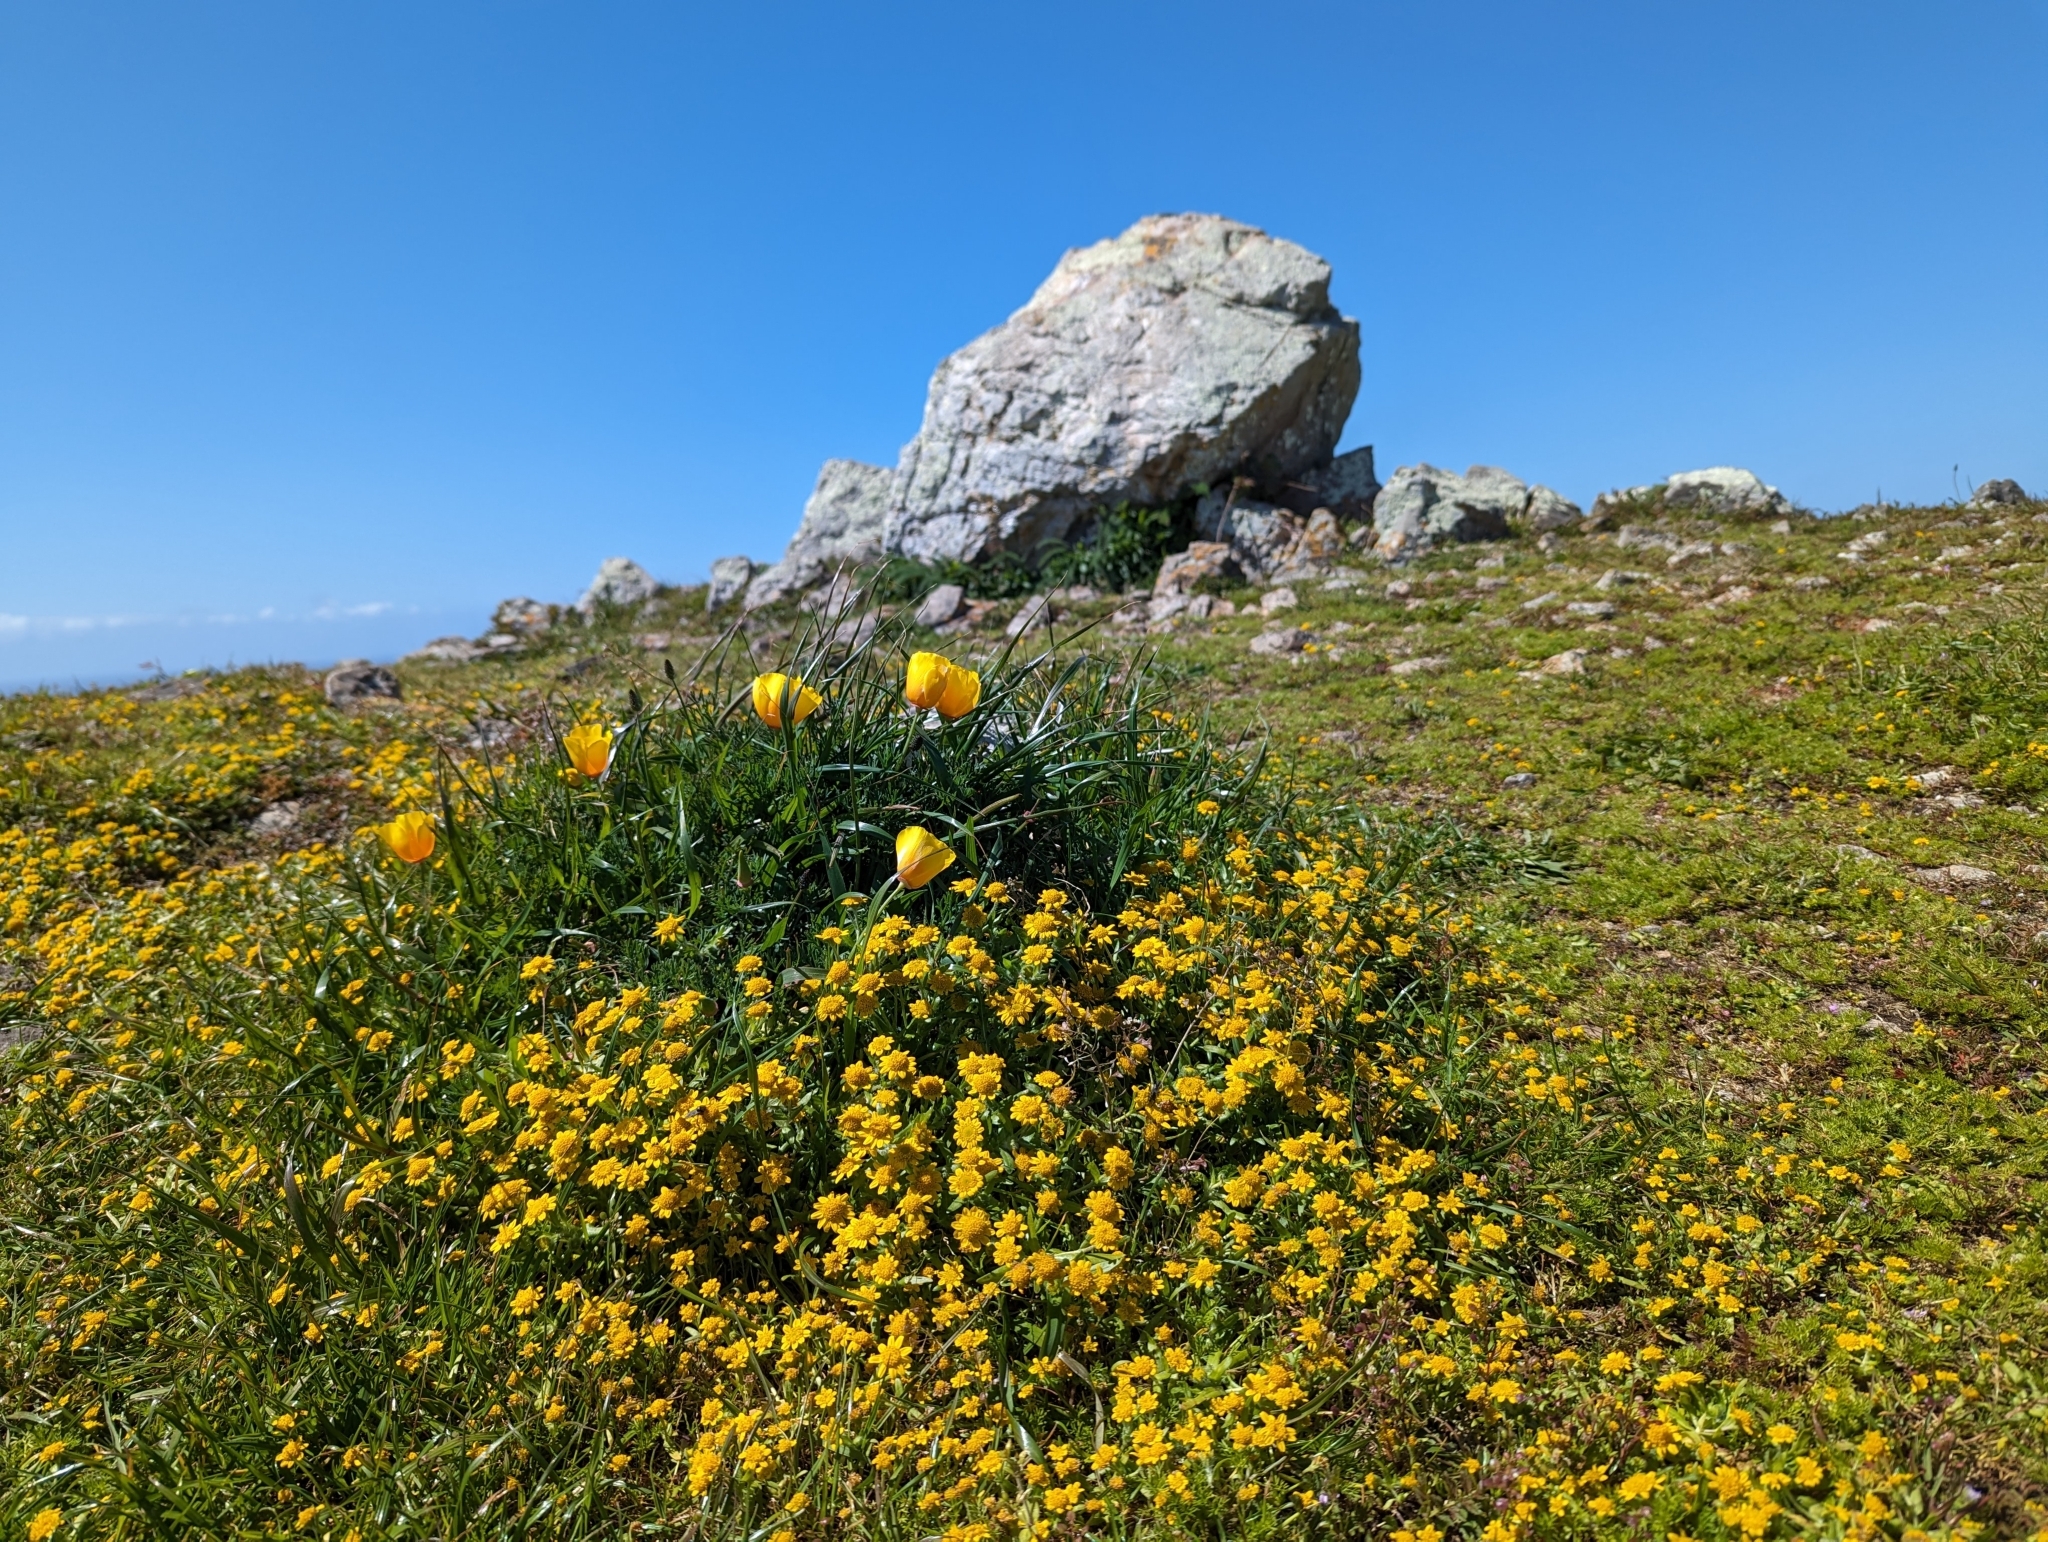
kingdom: Plantae
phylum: Tracheophyta
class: Magnoliopsida
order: Ranunculales
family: Papaveraceae
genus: Eschscholzia
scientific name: Eschscholzia californica
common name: California poppy
